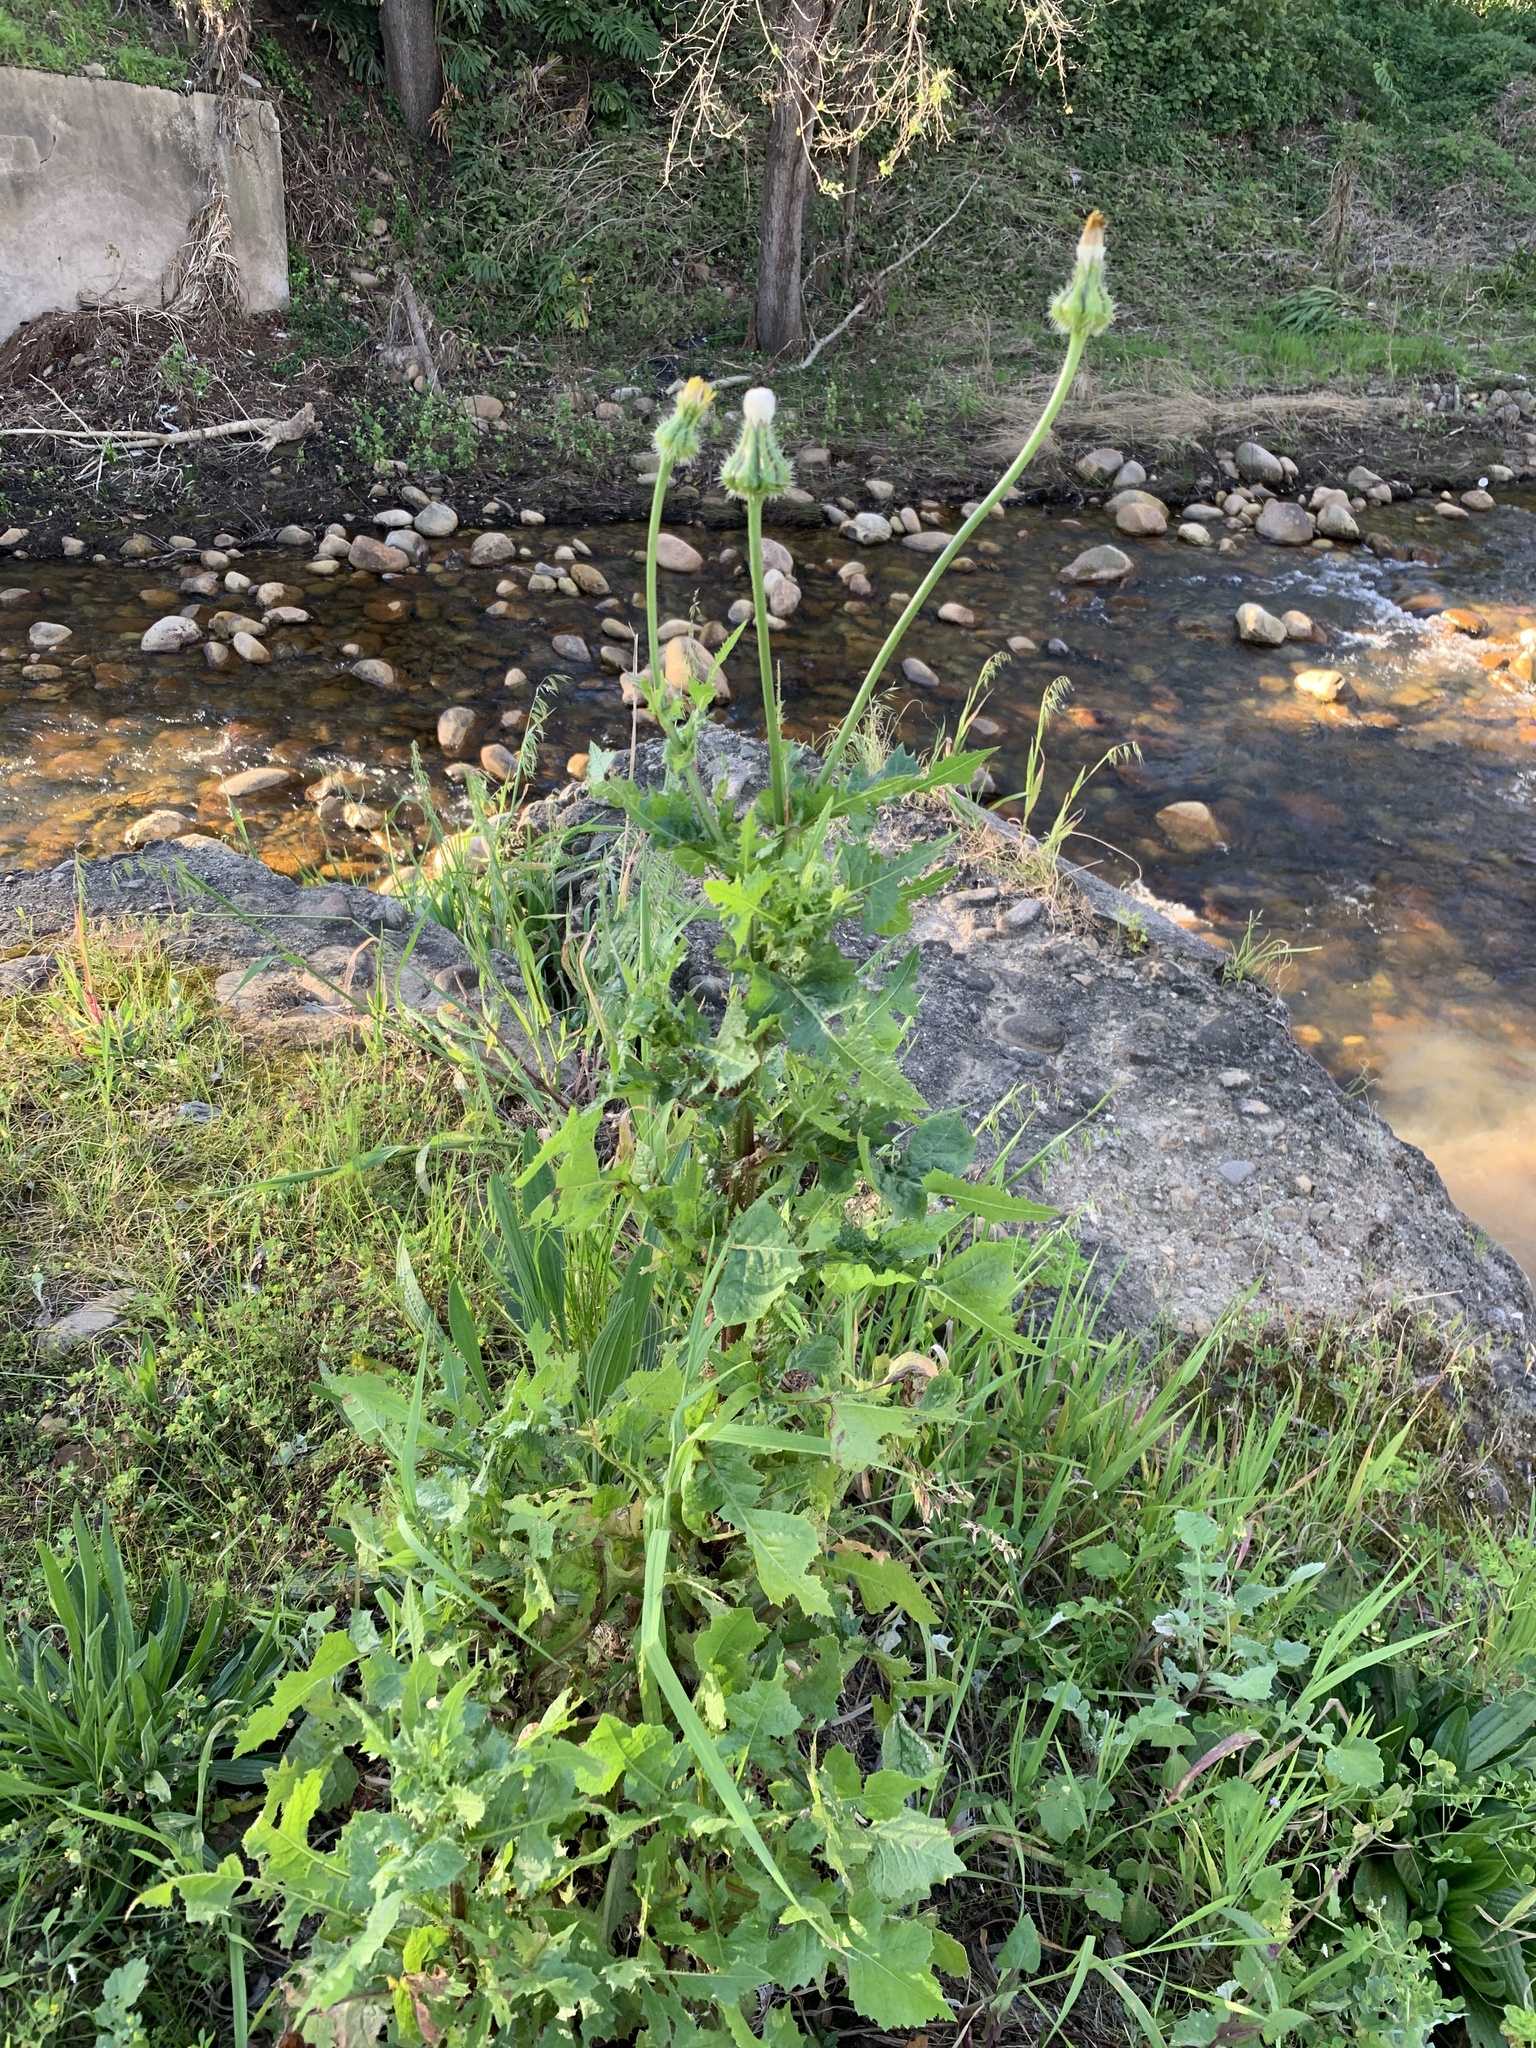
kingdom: Plantae
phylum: Tracheophyta
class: Magnoliopsida
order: Asterales
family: Asteraceae
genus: Urospermum
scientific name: Urospermum picroides
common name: False hawkbit
